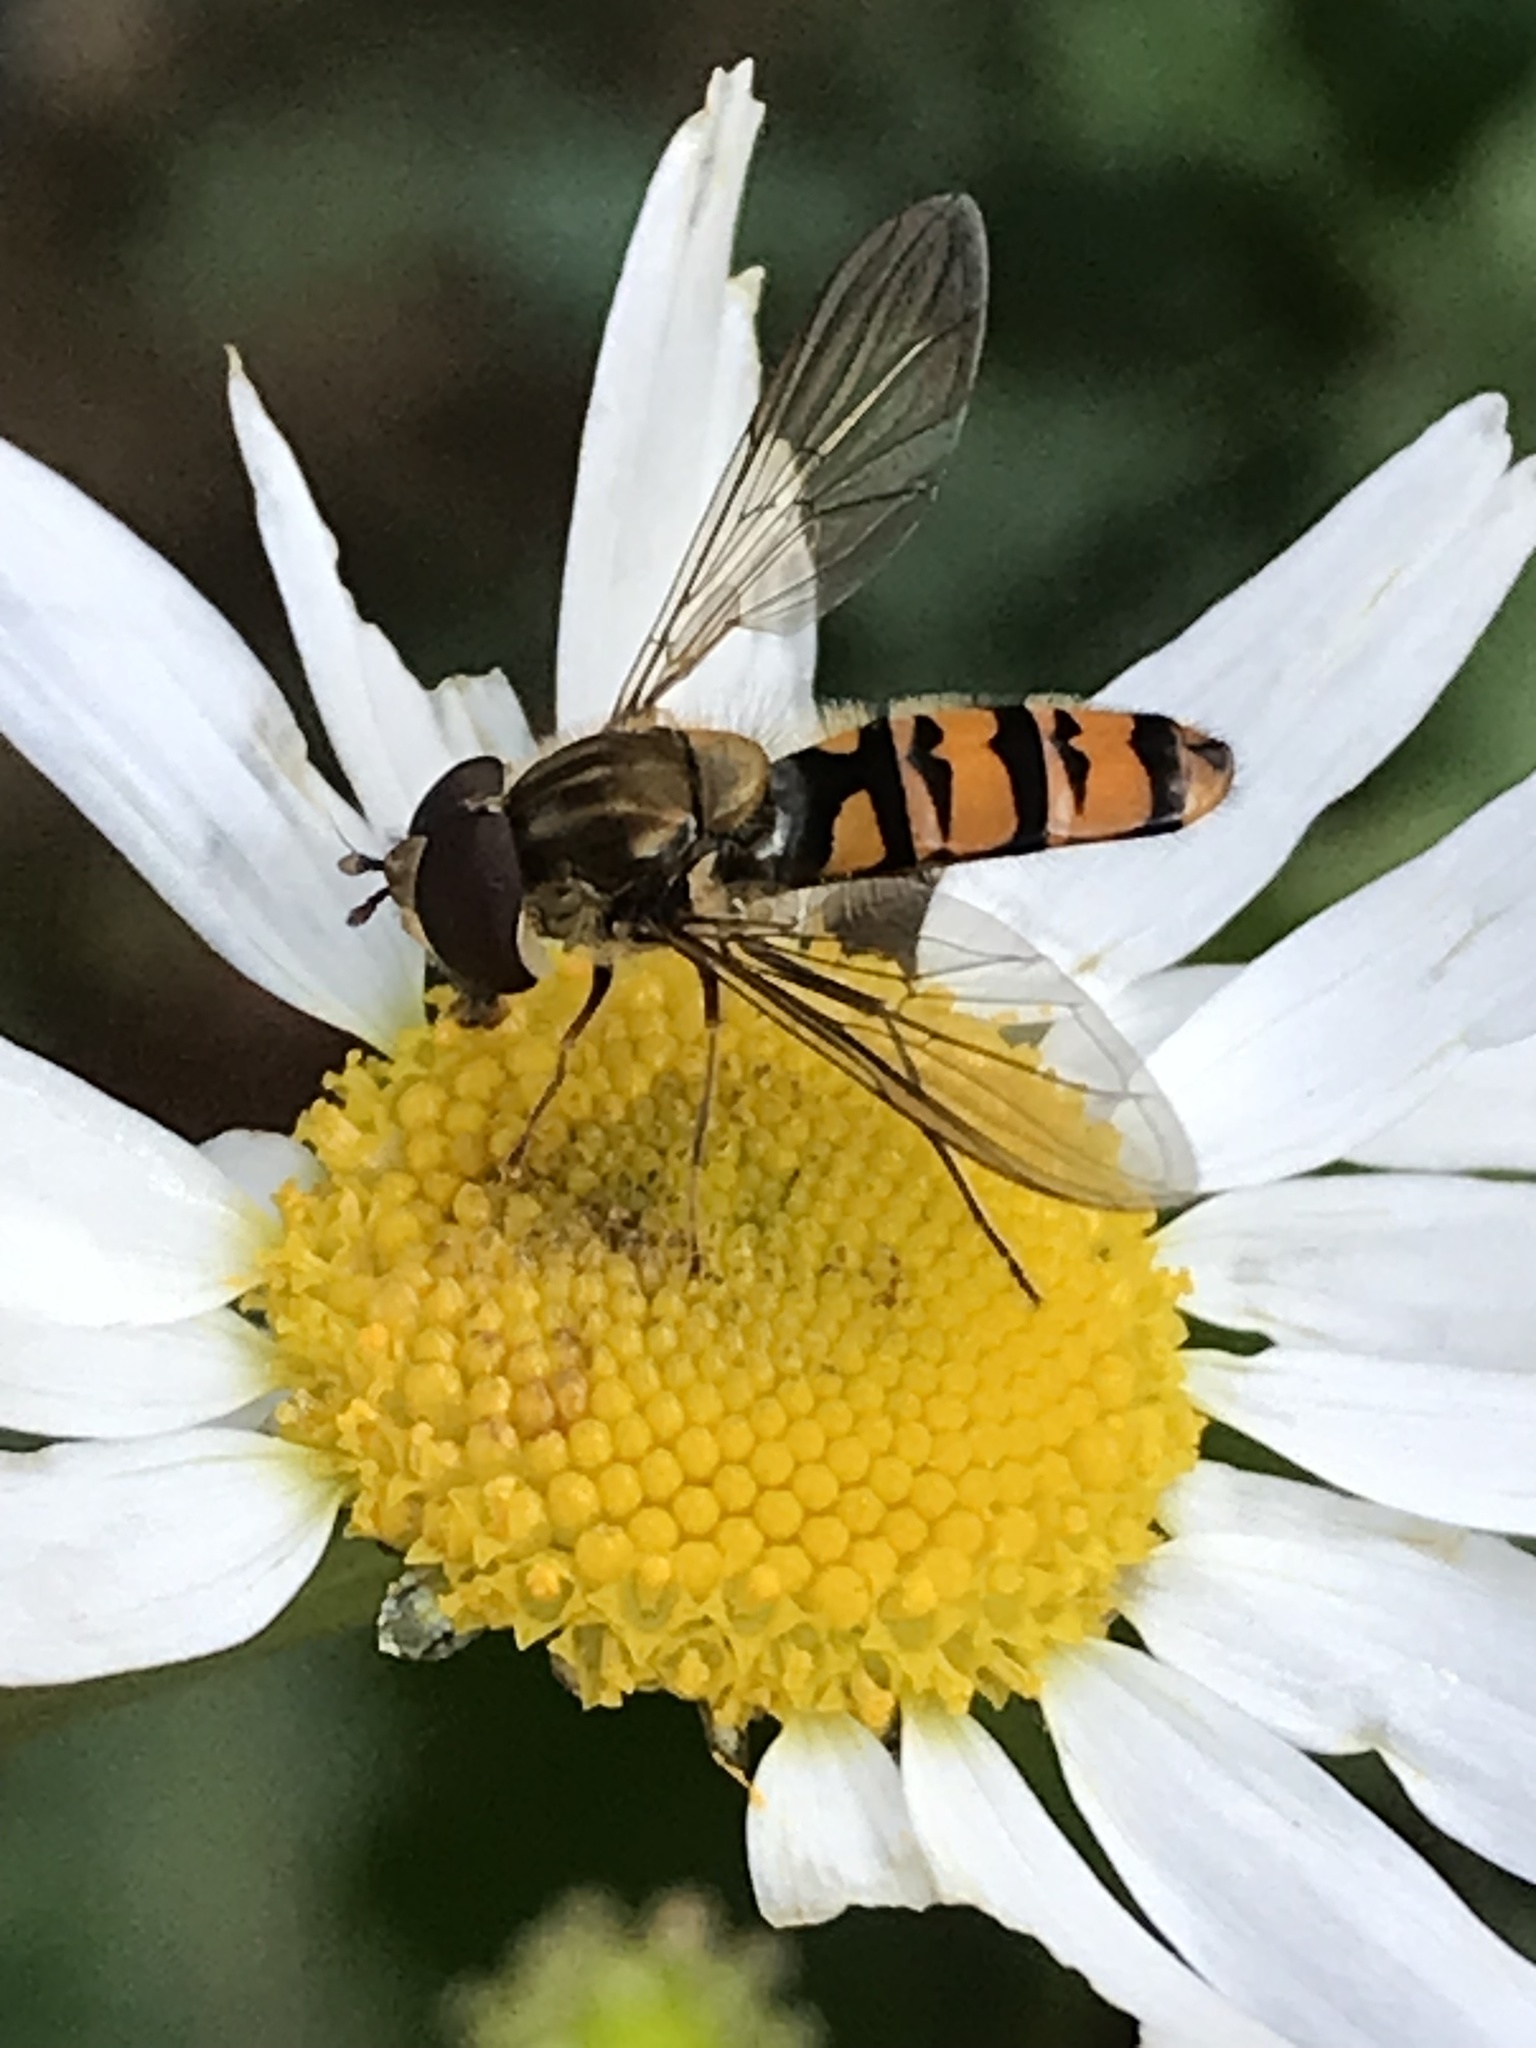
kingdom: Animalia
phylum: Arthropoda
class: Insecta
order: Diptera
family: Syrphidae
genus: Episyrphus
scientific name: Episyrphus balteatus
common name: Marmalade hoverfly
